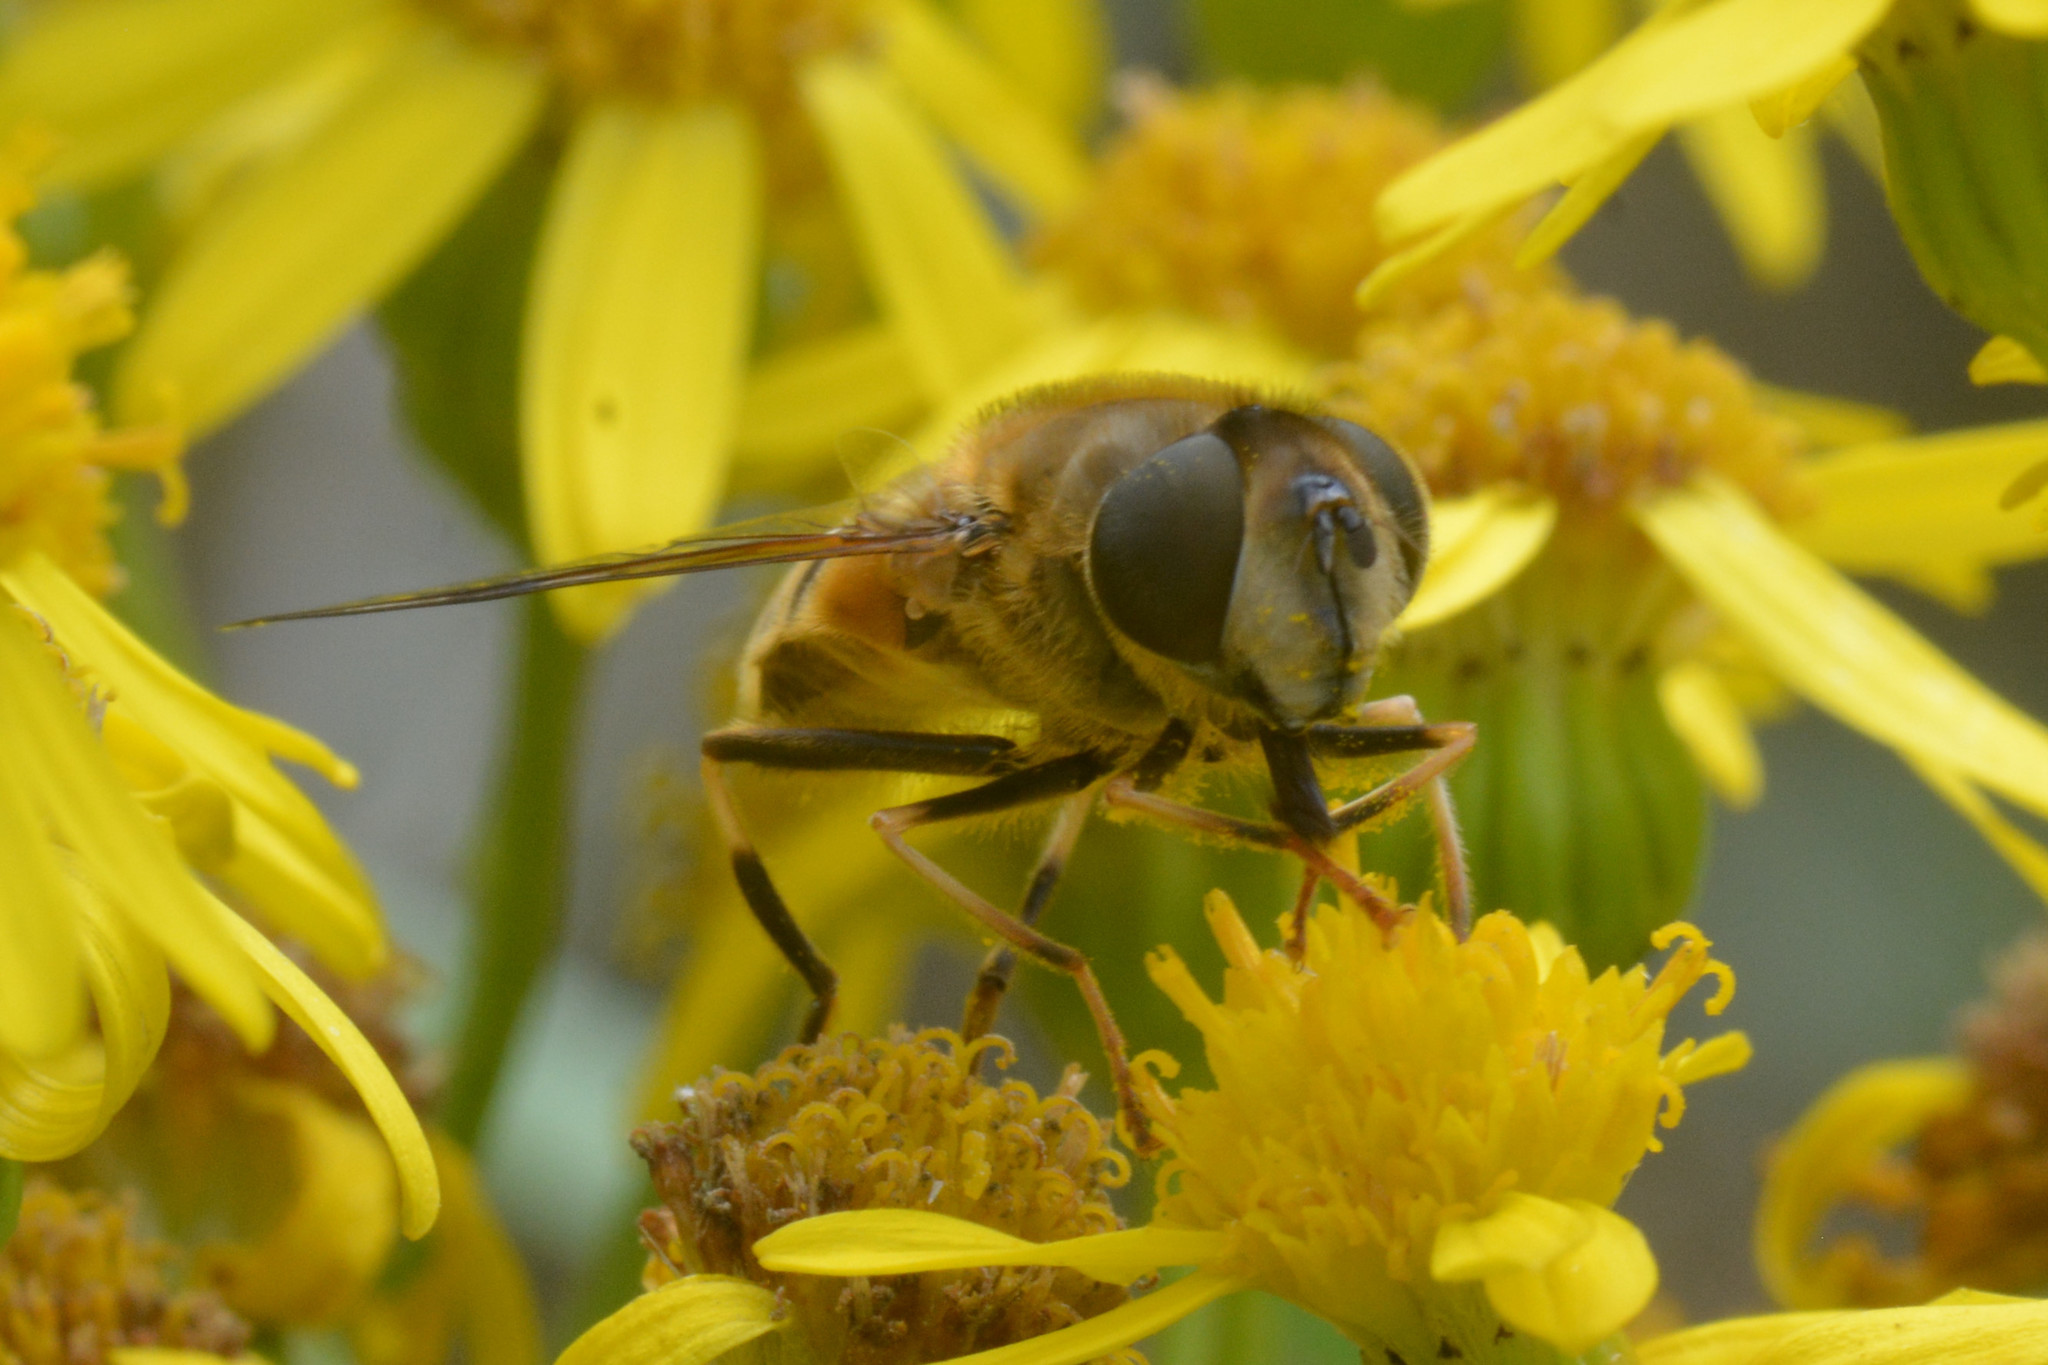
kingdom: Animalia
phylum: Arthropoda
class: Insecta
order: Diptera
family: Syrphidae
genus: Eristalis
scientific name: Eristalis pertinax
